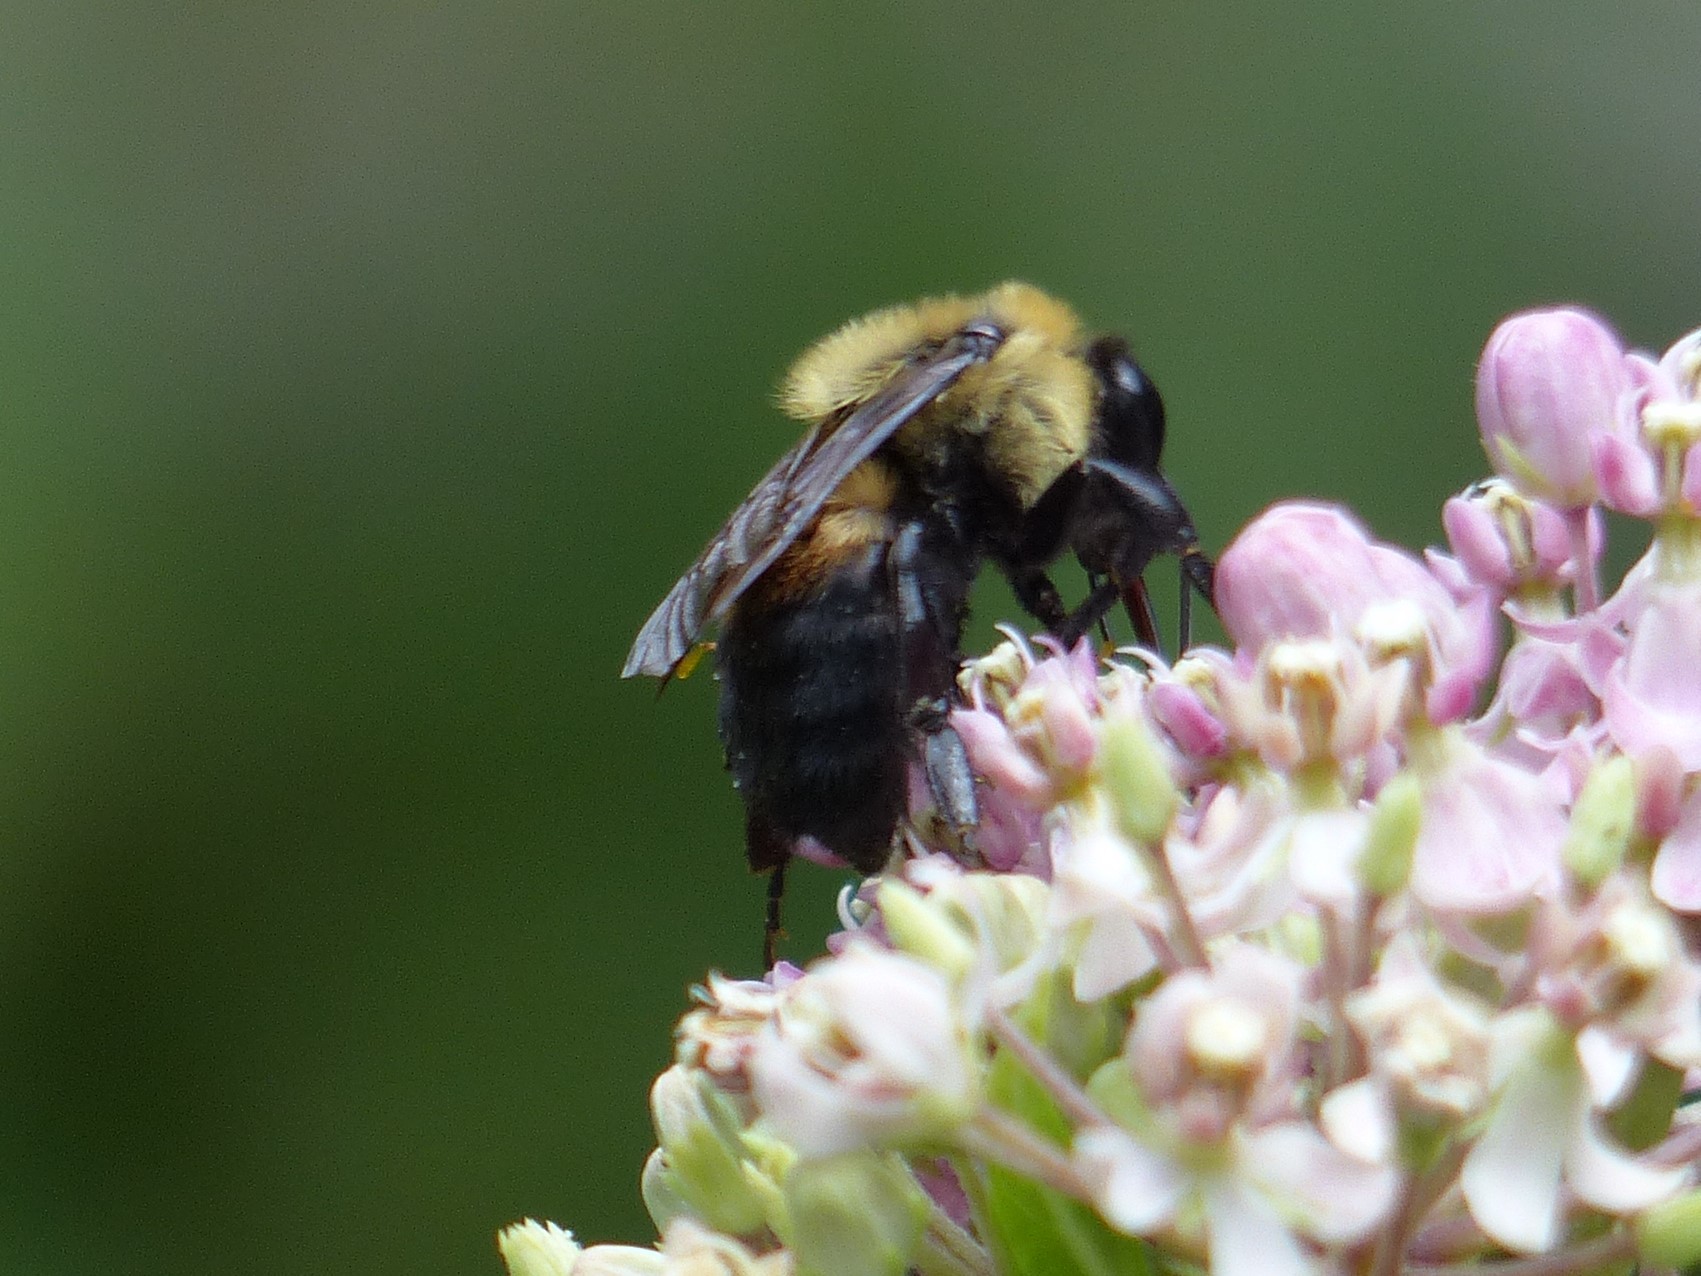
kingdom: Animalia
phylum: Arthropoda
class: Insecta
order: Hymenoptera
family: Apidae
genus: Bombus
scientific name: Bombus griseocollis
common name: Brown-belted bumble bee
